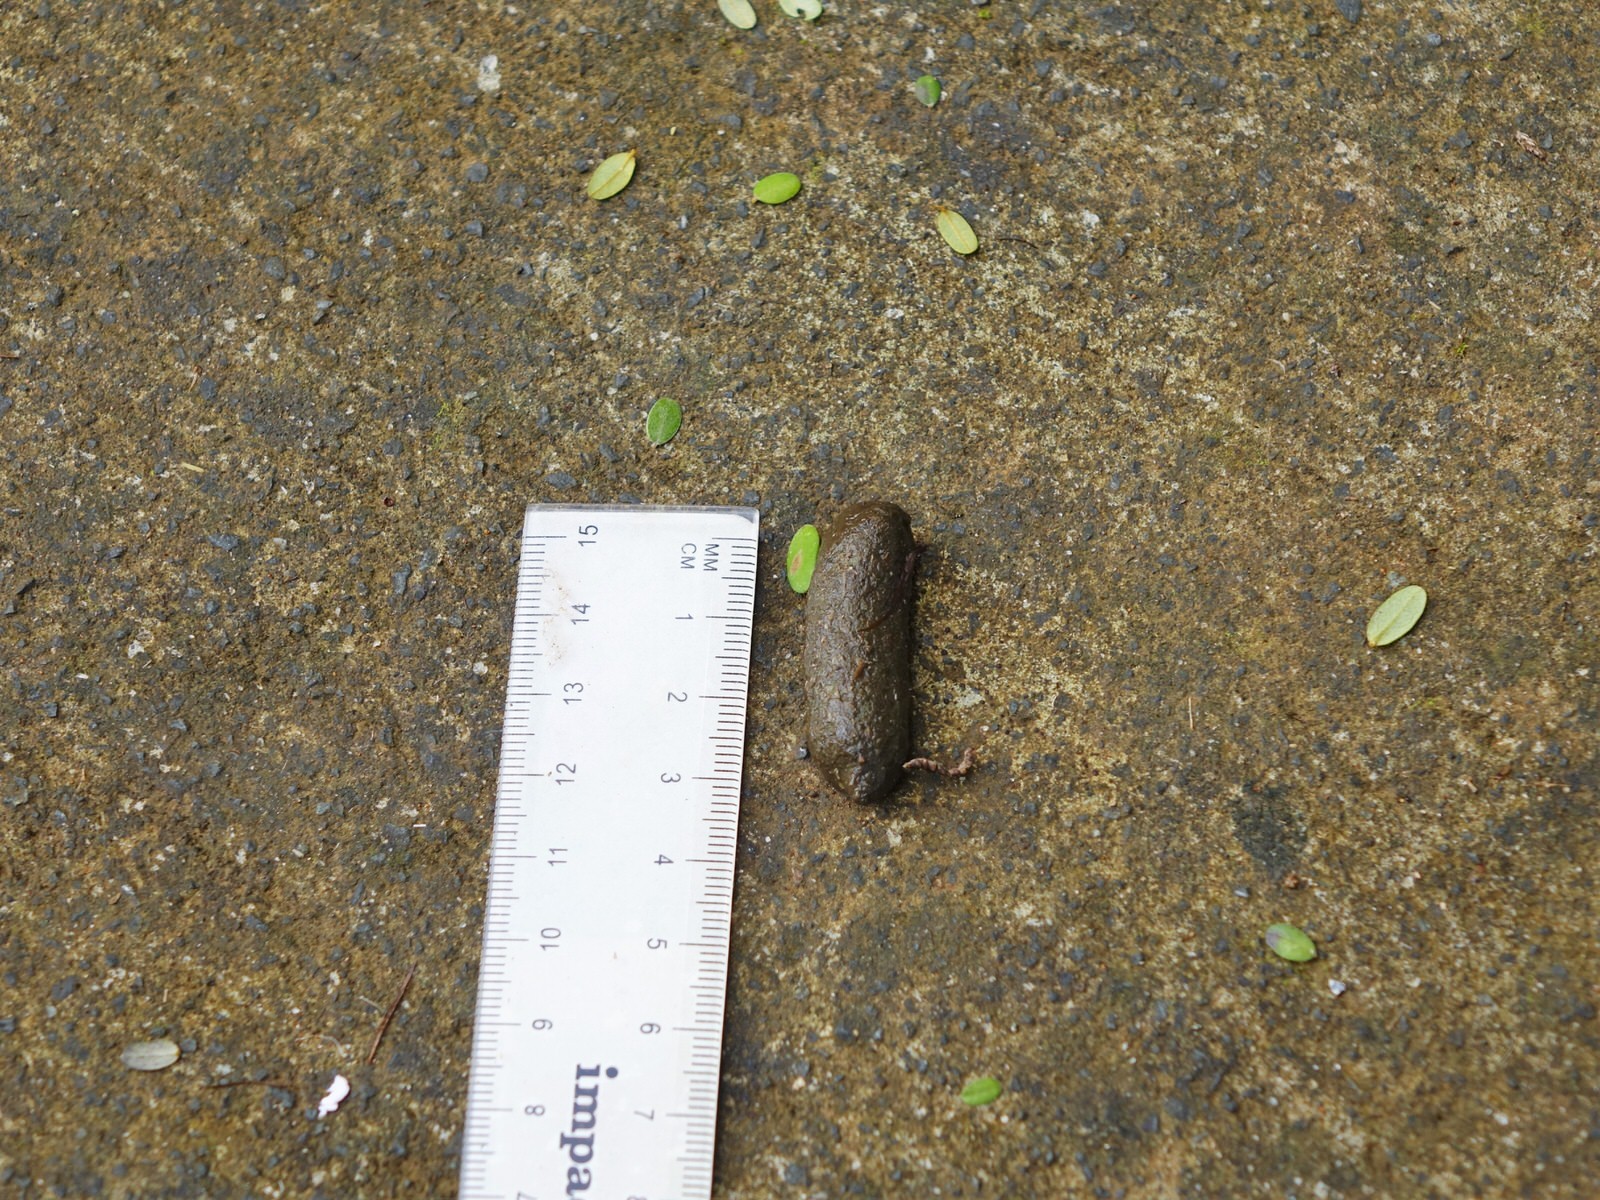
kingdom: Animalia
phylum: Chordata
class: Mammalia
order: Diprotodontia
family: Phalangeridae
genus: Trichosurus
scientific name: Trichosurus vulpecula
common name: Common brushtail
